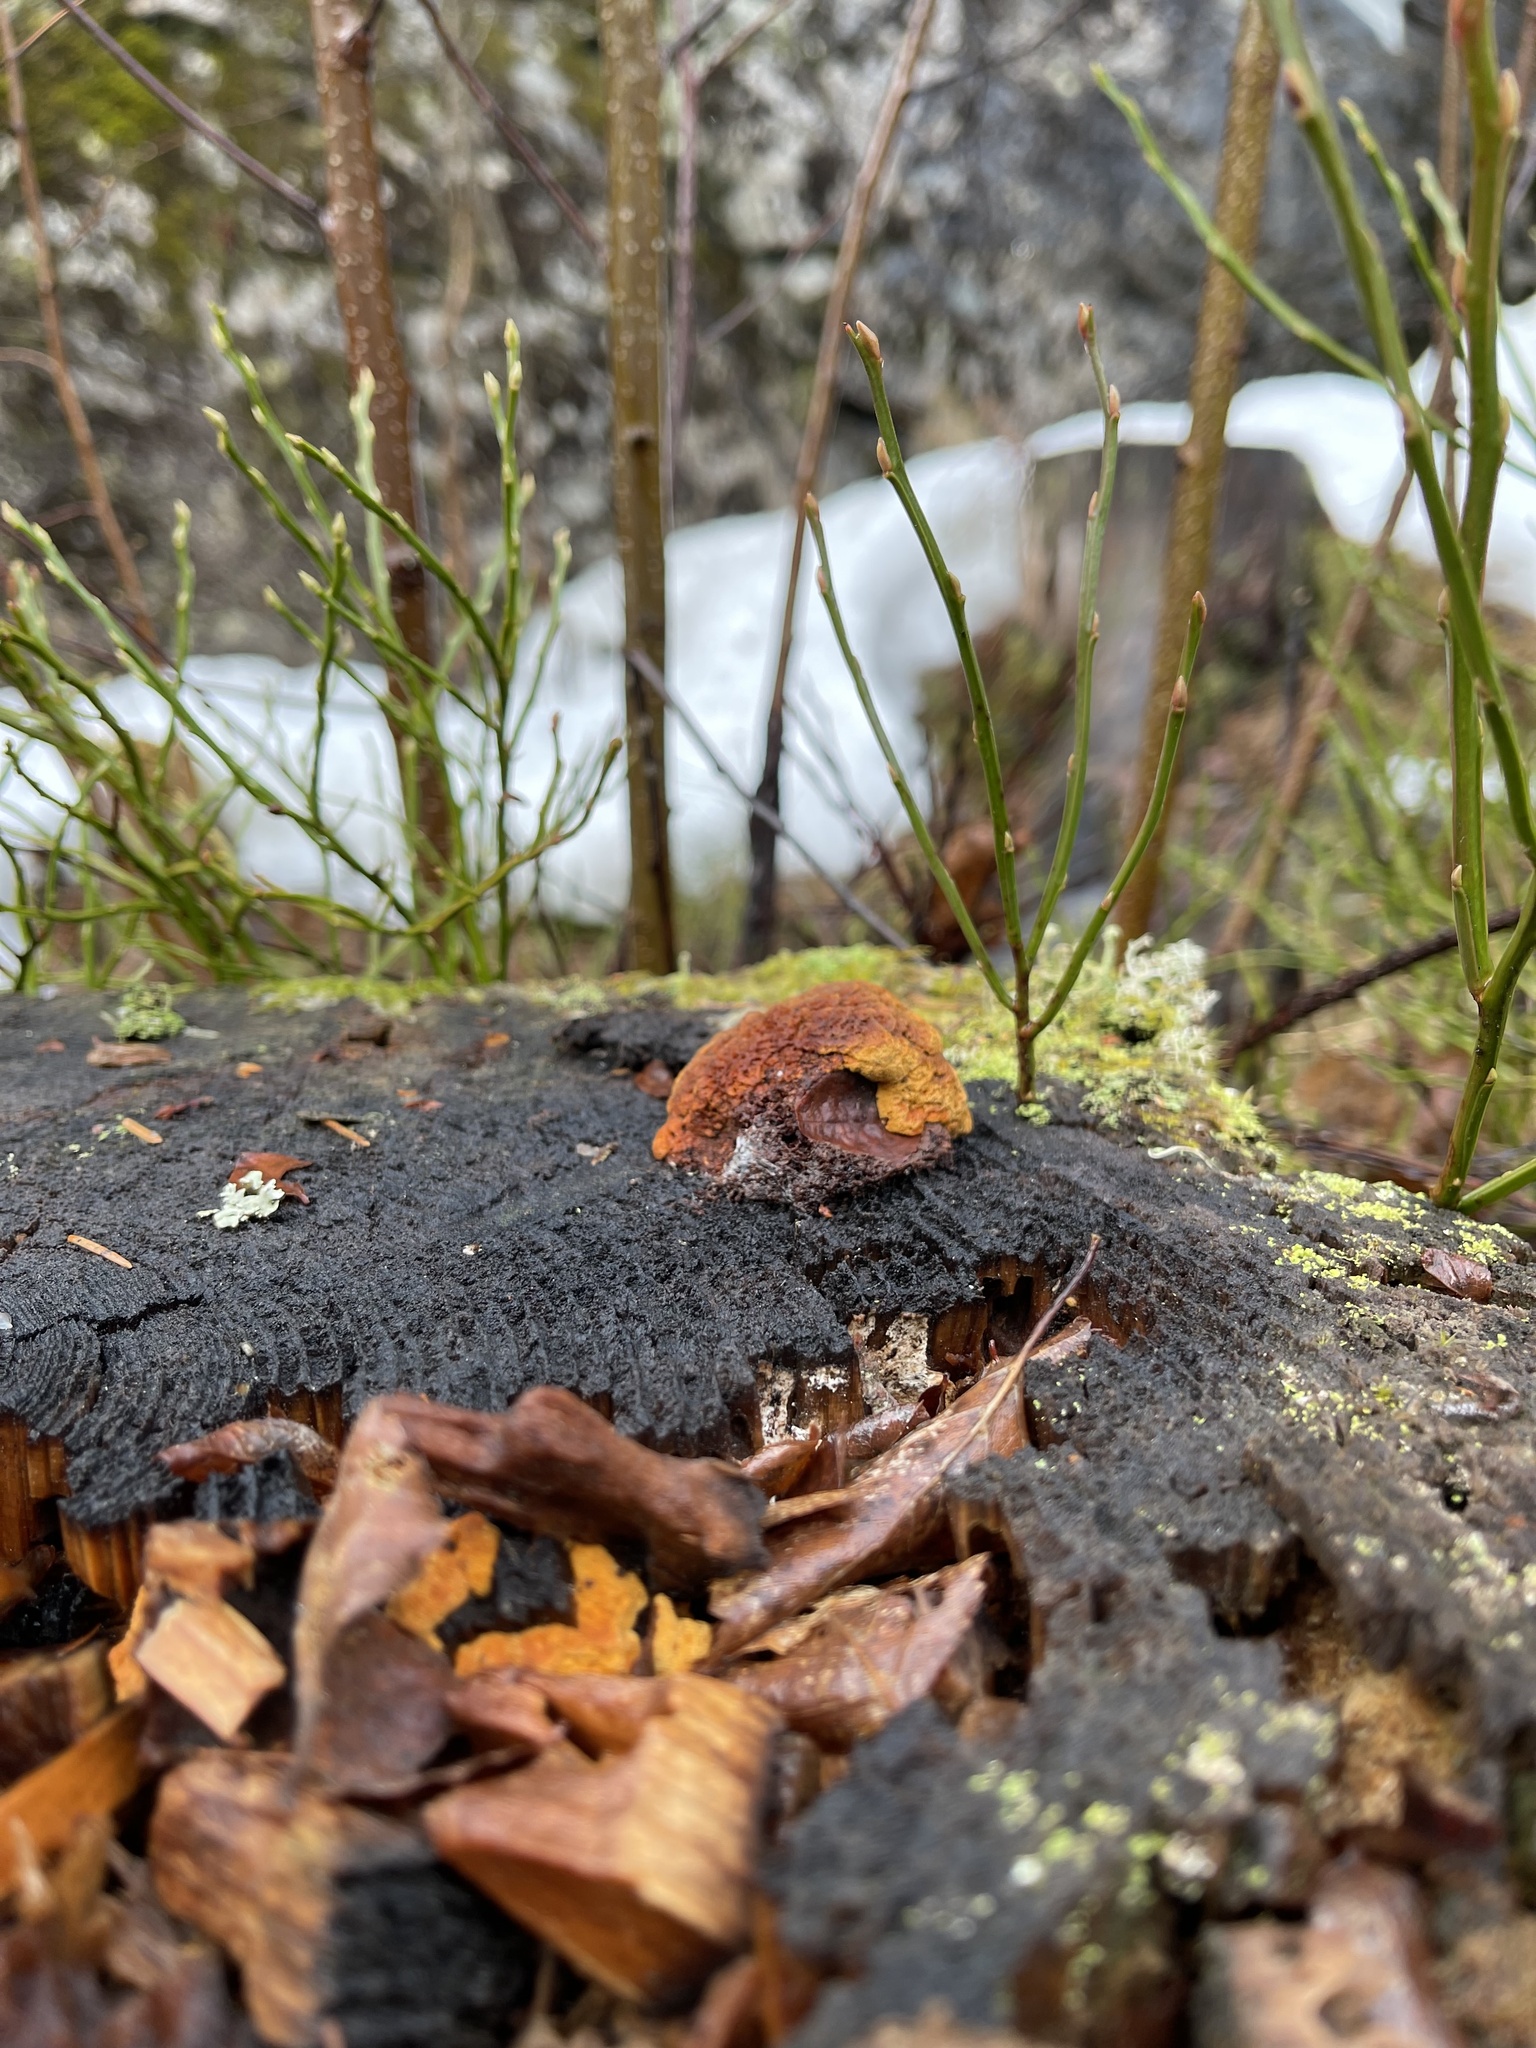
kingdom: Fungi
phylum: Basidiomycota
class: Agaricomycetes
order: Gloeophyllales
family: Gloeophyllaceae
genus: Gloeophyllum
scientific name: Gloeophyllum odoratum
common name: Anise mazegill
